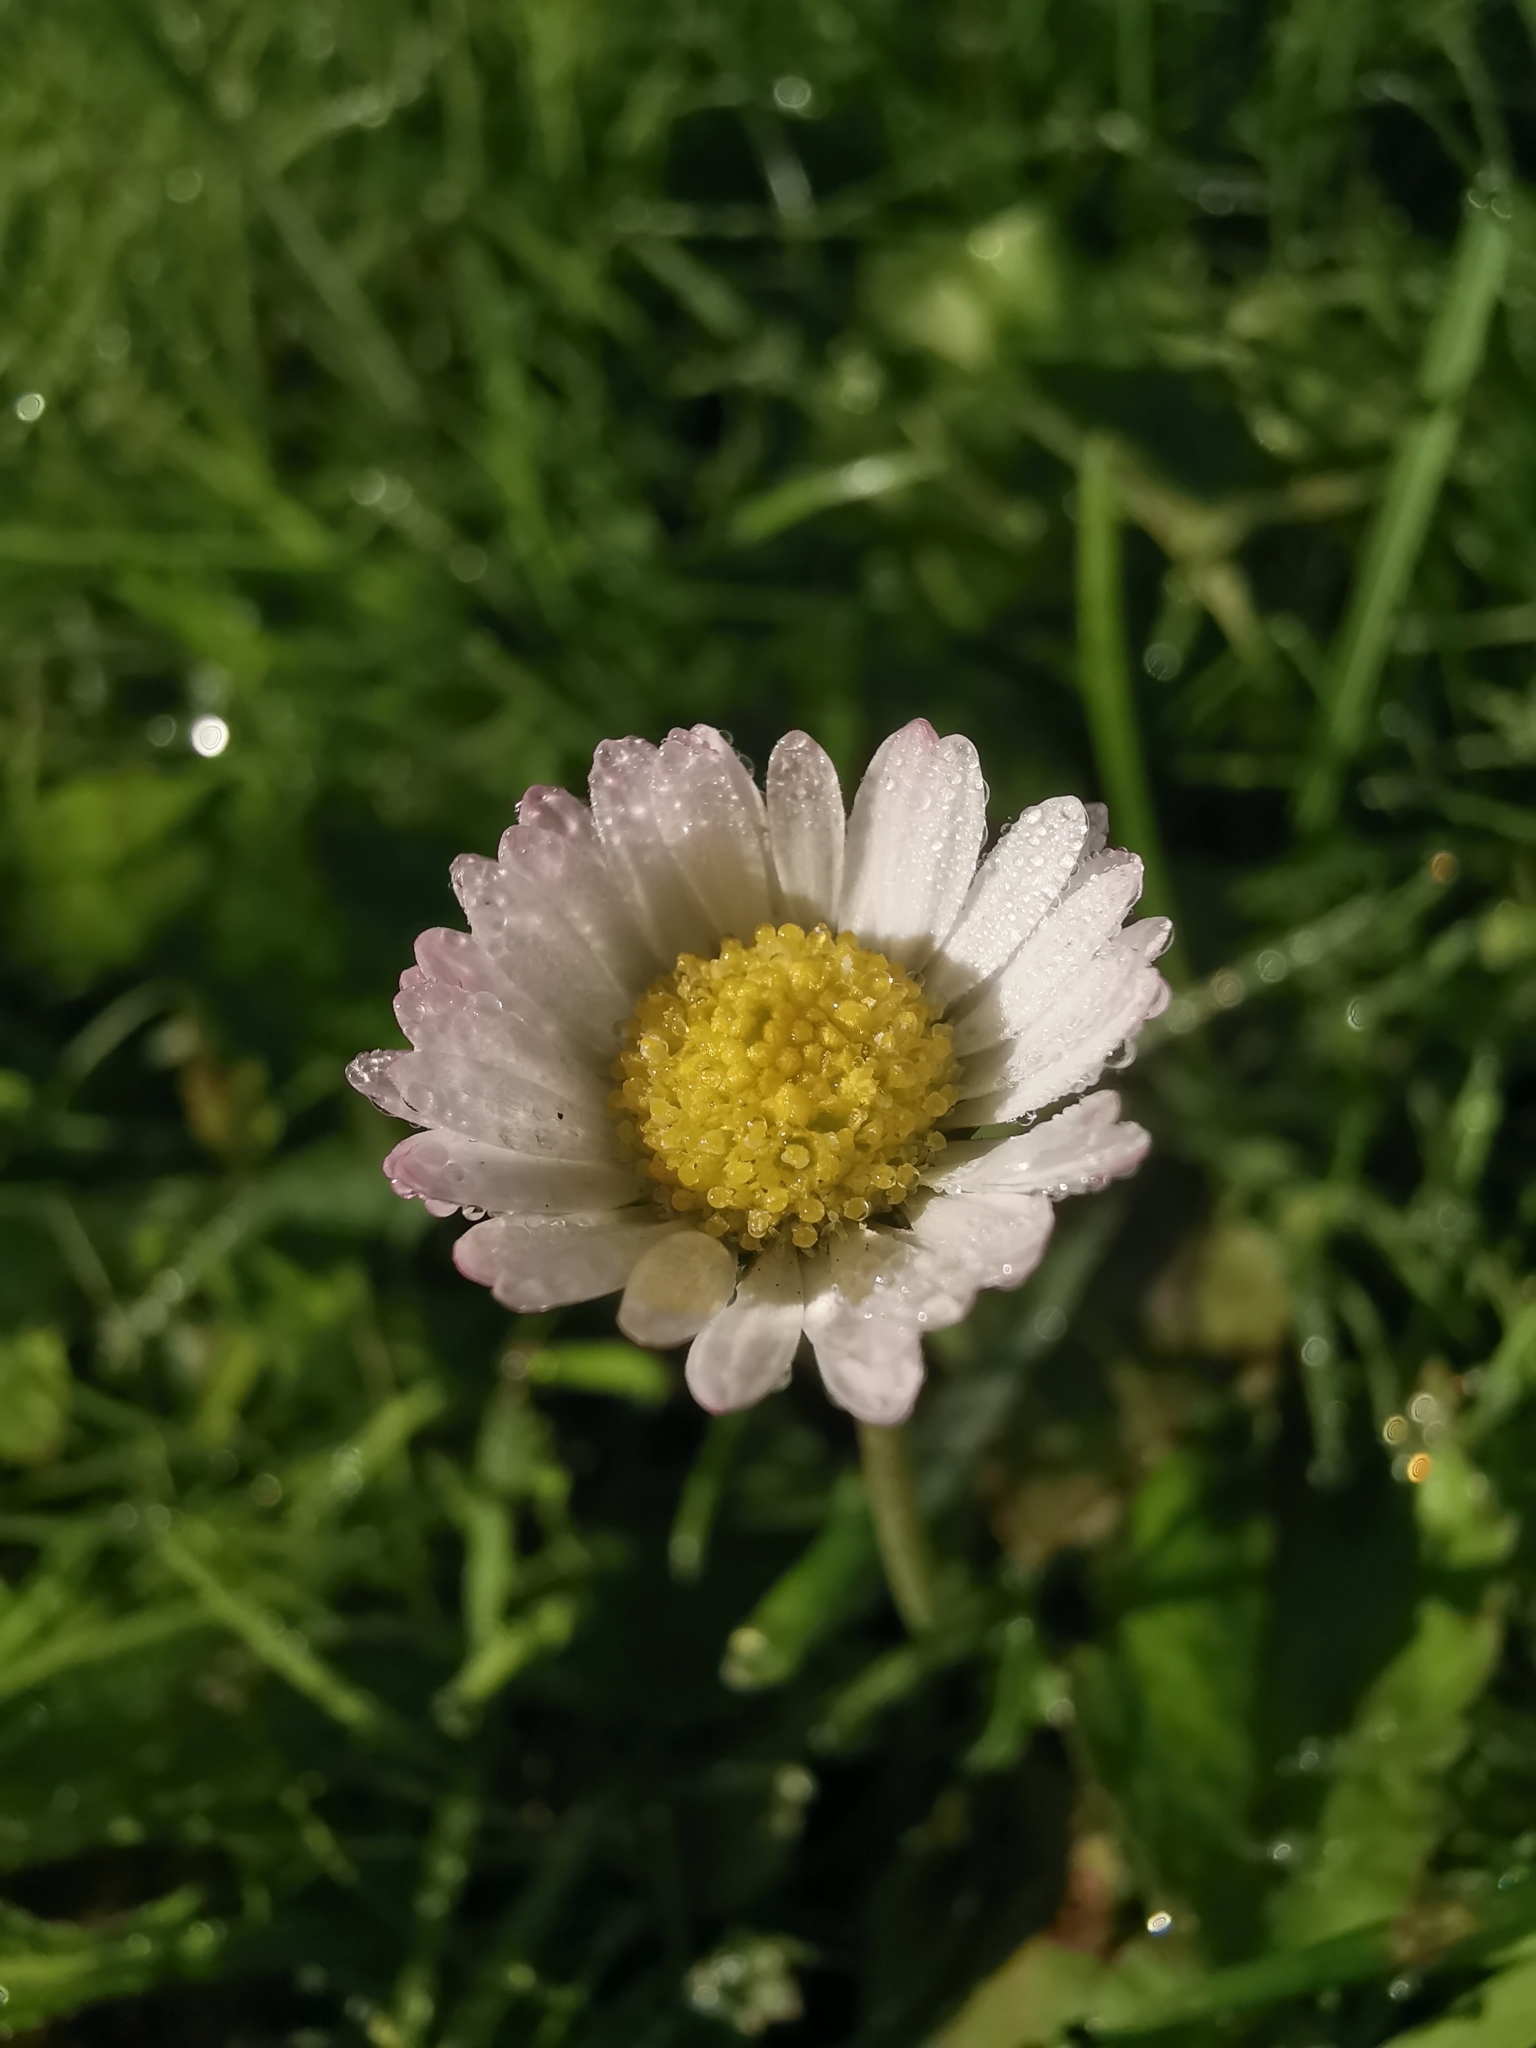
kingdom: Plantae
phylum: Tracheophyta
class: Magnoliopsida
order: Asterales
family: Asteraceae
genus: Bellis
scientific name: Bellis perennis
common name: Lawndaisy
